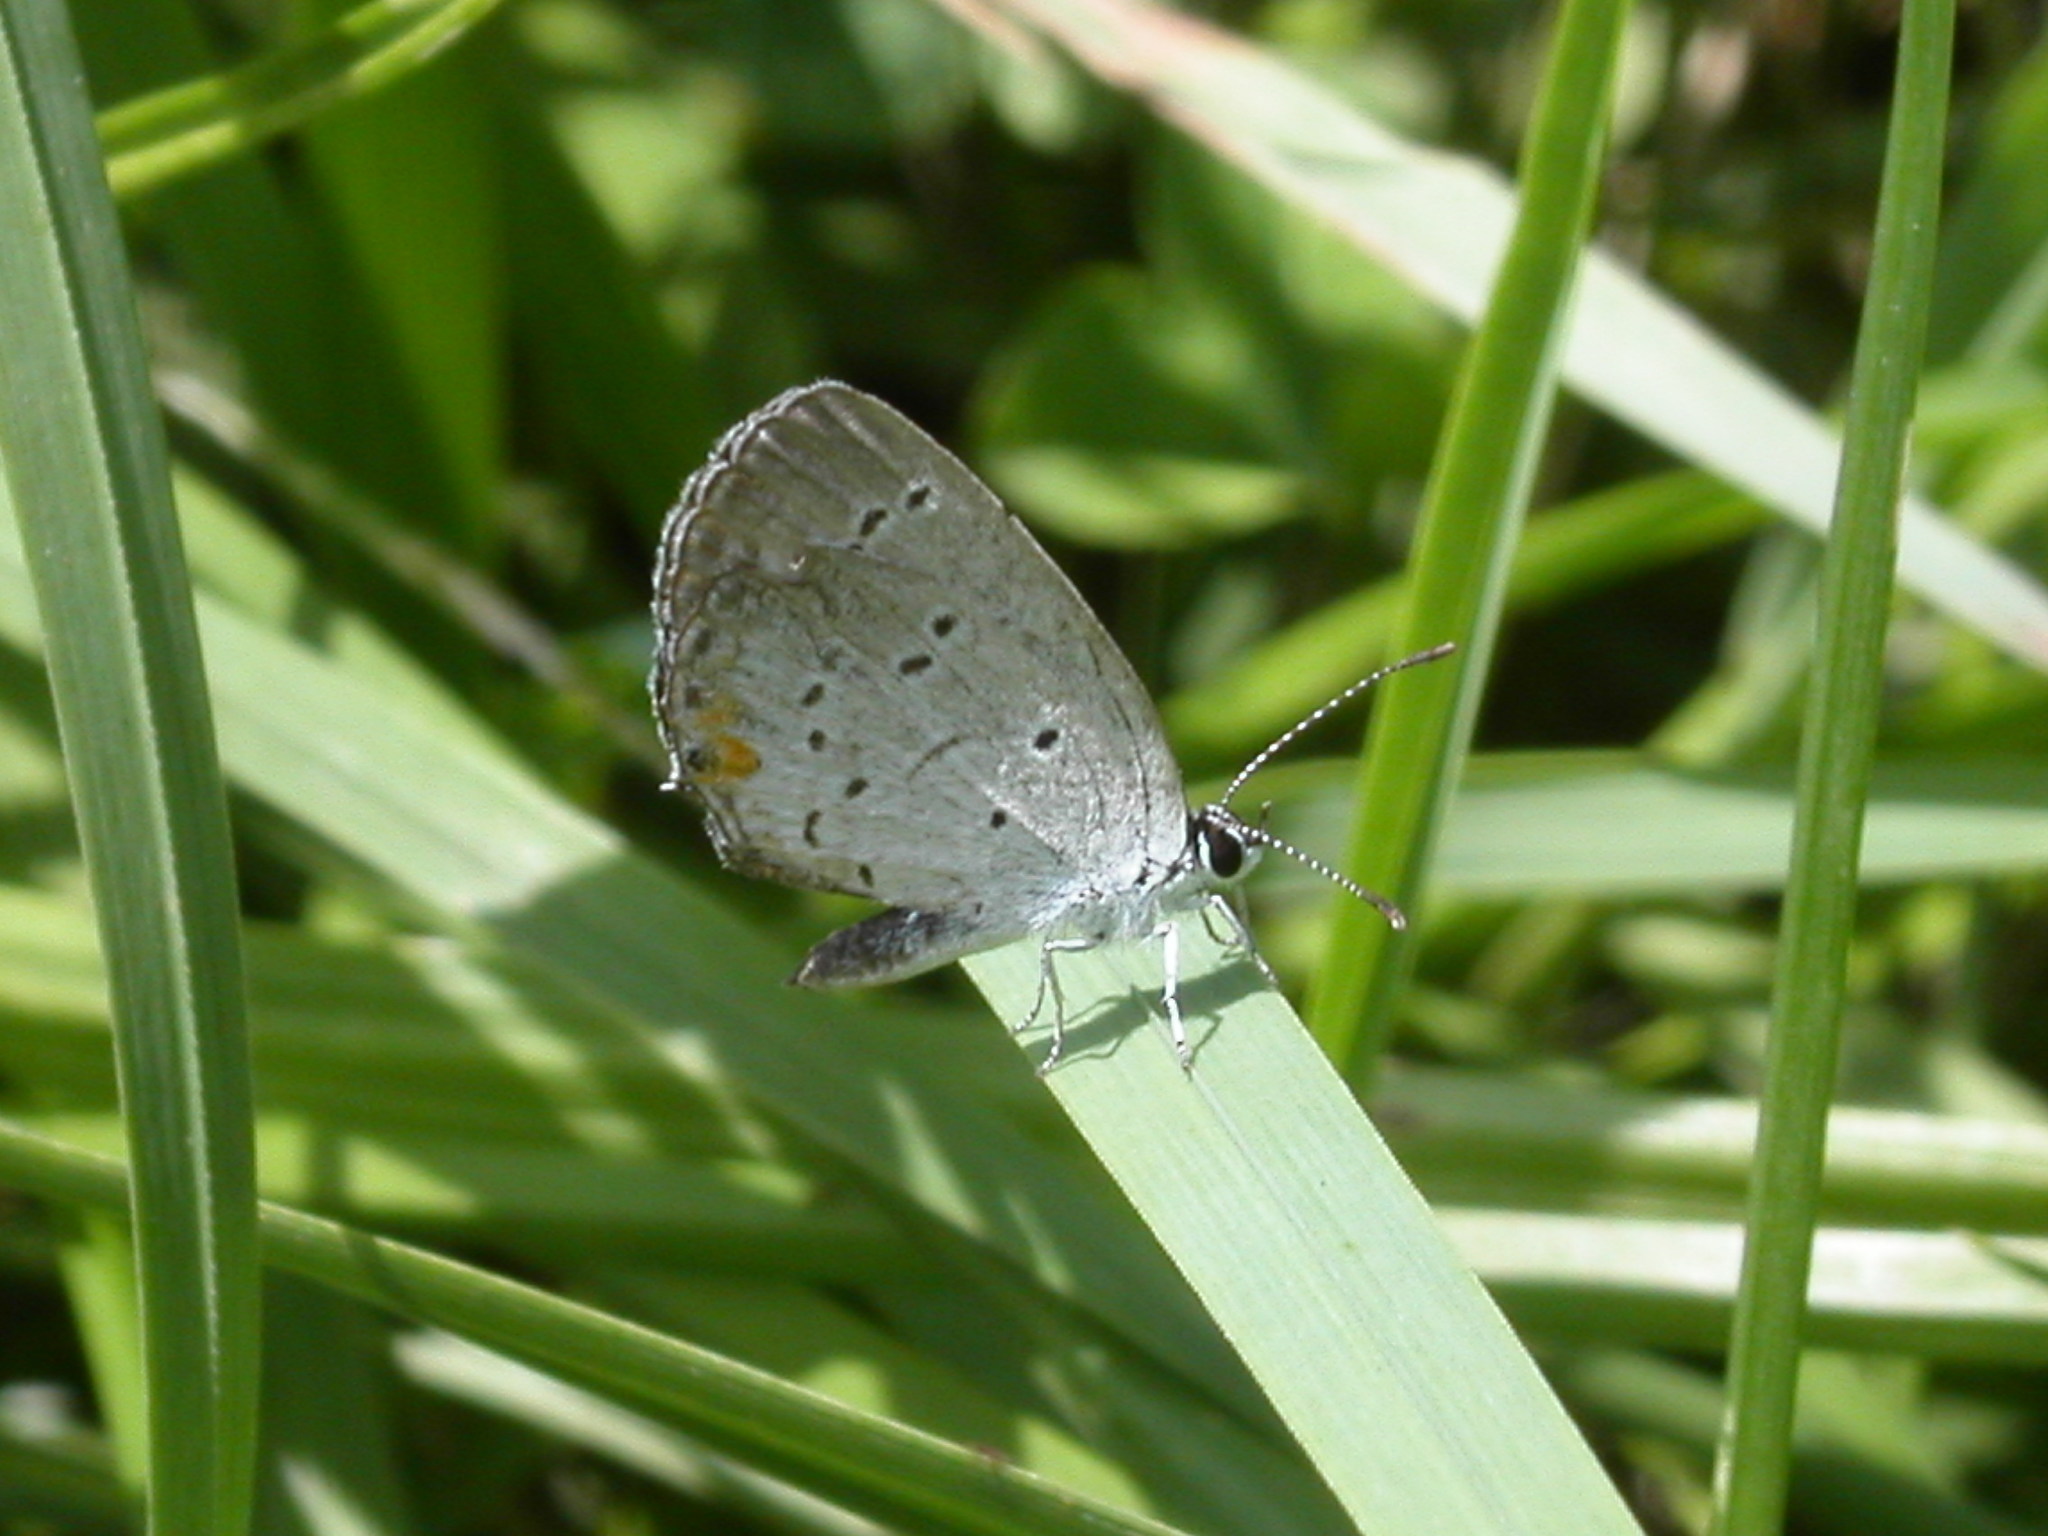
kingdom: Animalia
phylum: Arthropoda
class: Insecta
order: Lepidoptera
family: Lycaenidae
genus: Elkalyce
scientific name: Elkalyce comyntas
